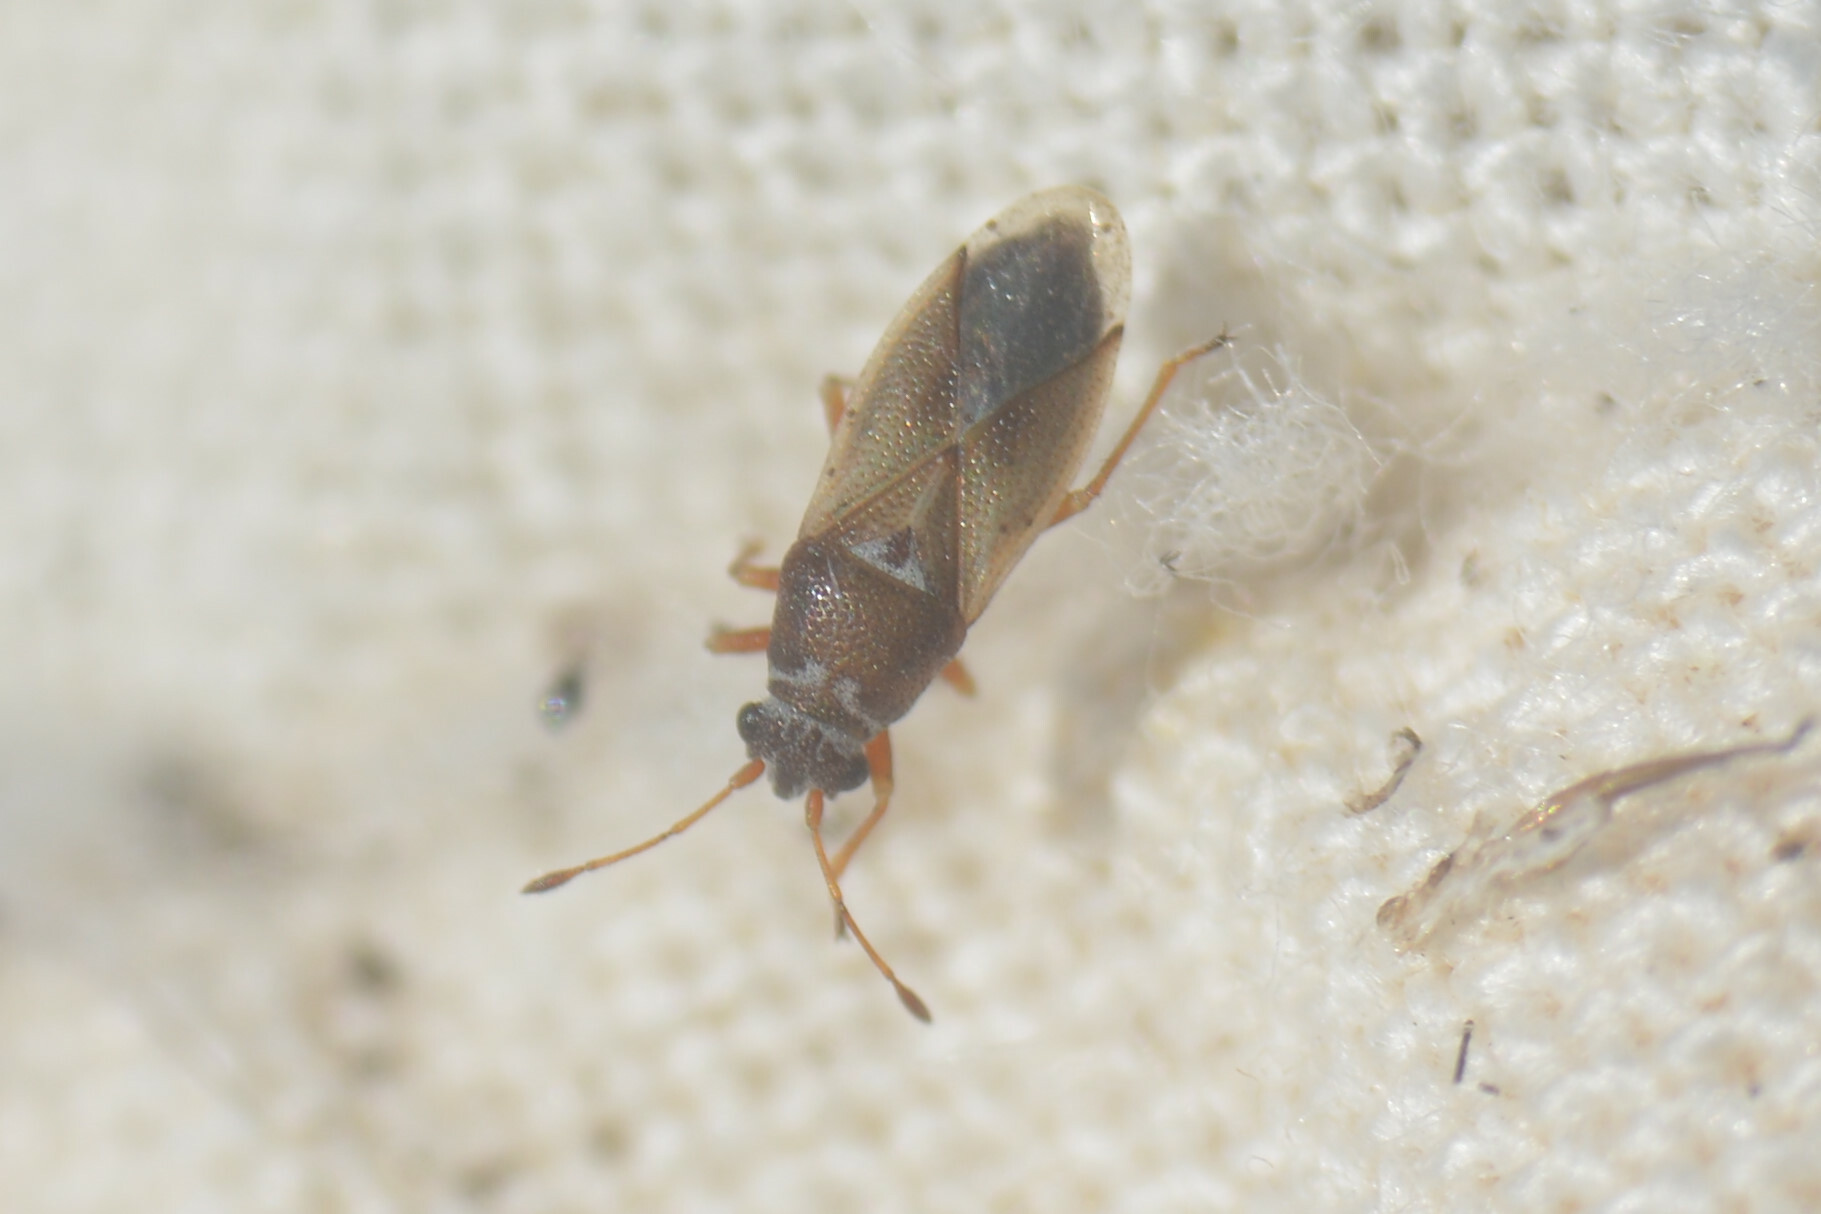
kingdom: Animalia
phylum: Arthropoda
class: Insecta
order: Hemiptera
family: Cymidae
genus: Cymus
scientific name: Cymus melanocephalus
